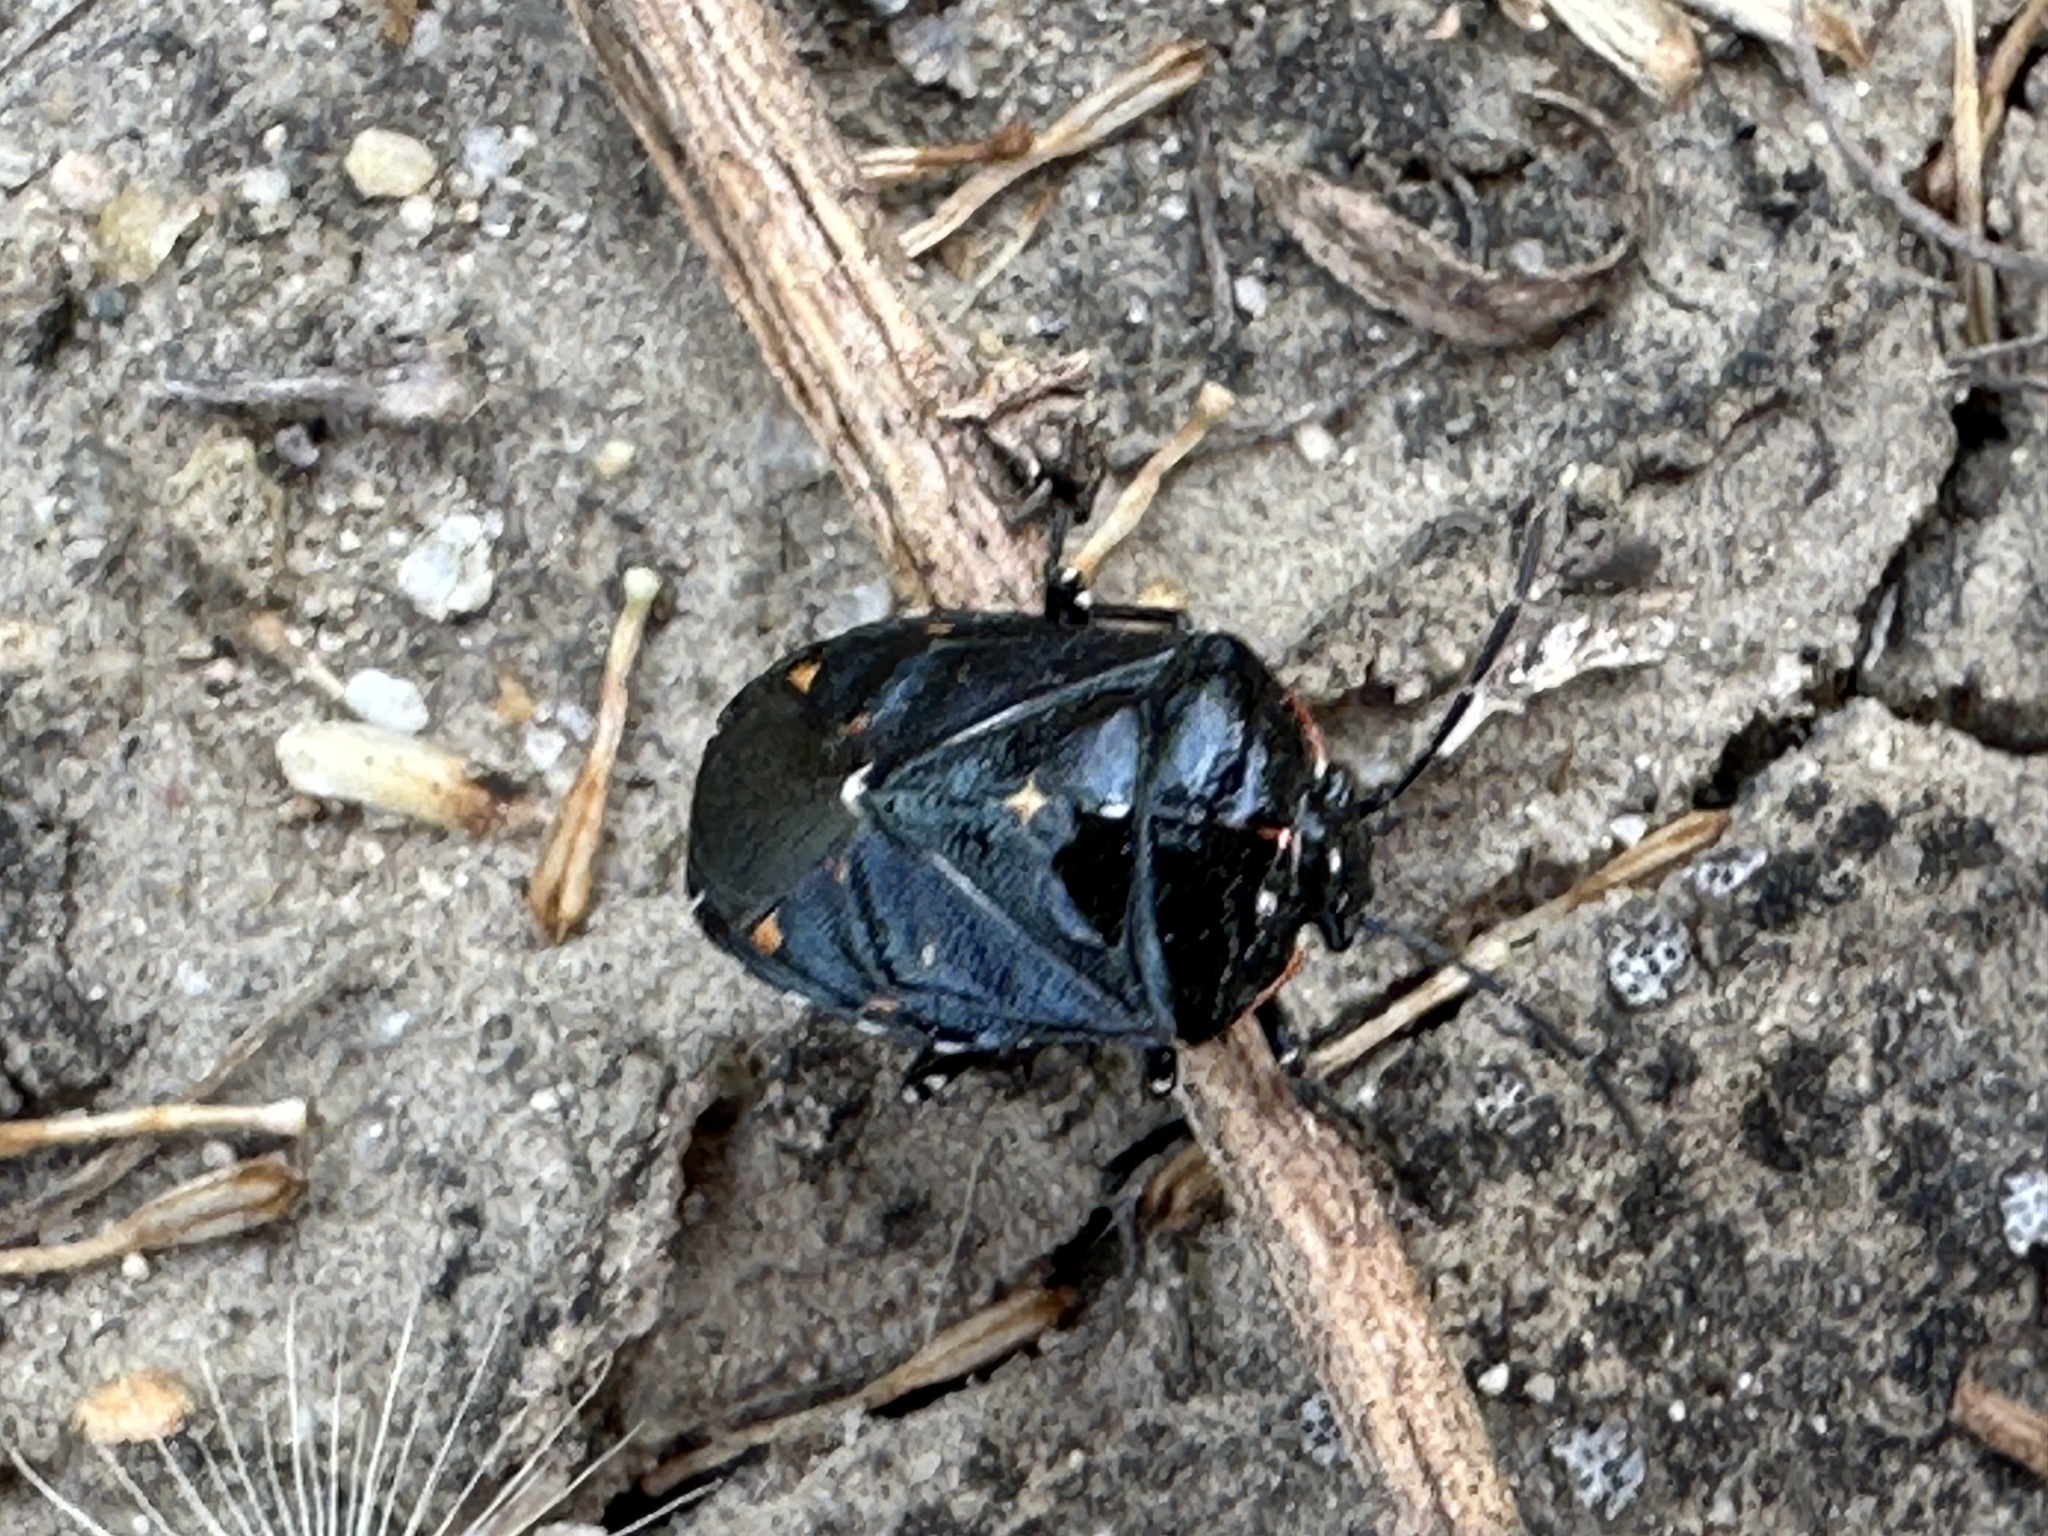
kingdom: Animalia
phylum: Arthropoda
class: Insecta
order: Hemiptera
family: Pentatomidae
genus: Murgantia
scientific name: Murgantia histrionica
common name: Harlequin bug
